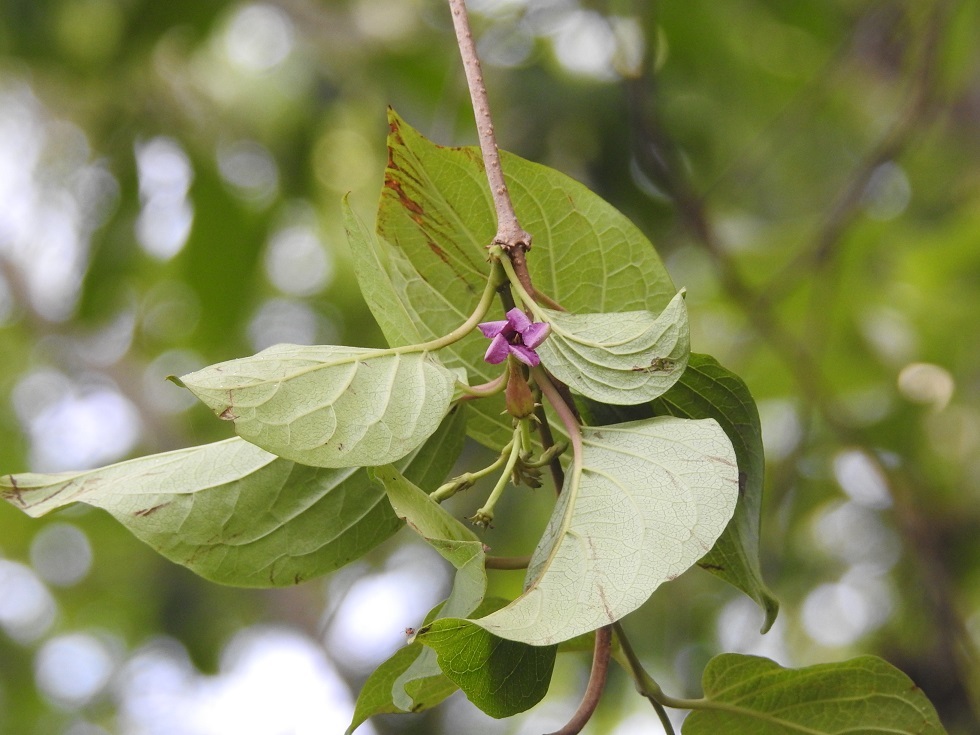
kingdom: Plantae
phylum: Tracheophyta
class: Magnoliopsida
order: Gentianales
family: Apocynaceae
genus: Laubertia
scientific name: Laubertia contorta
